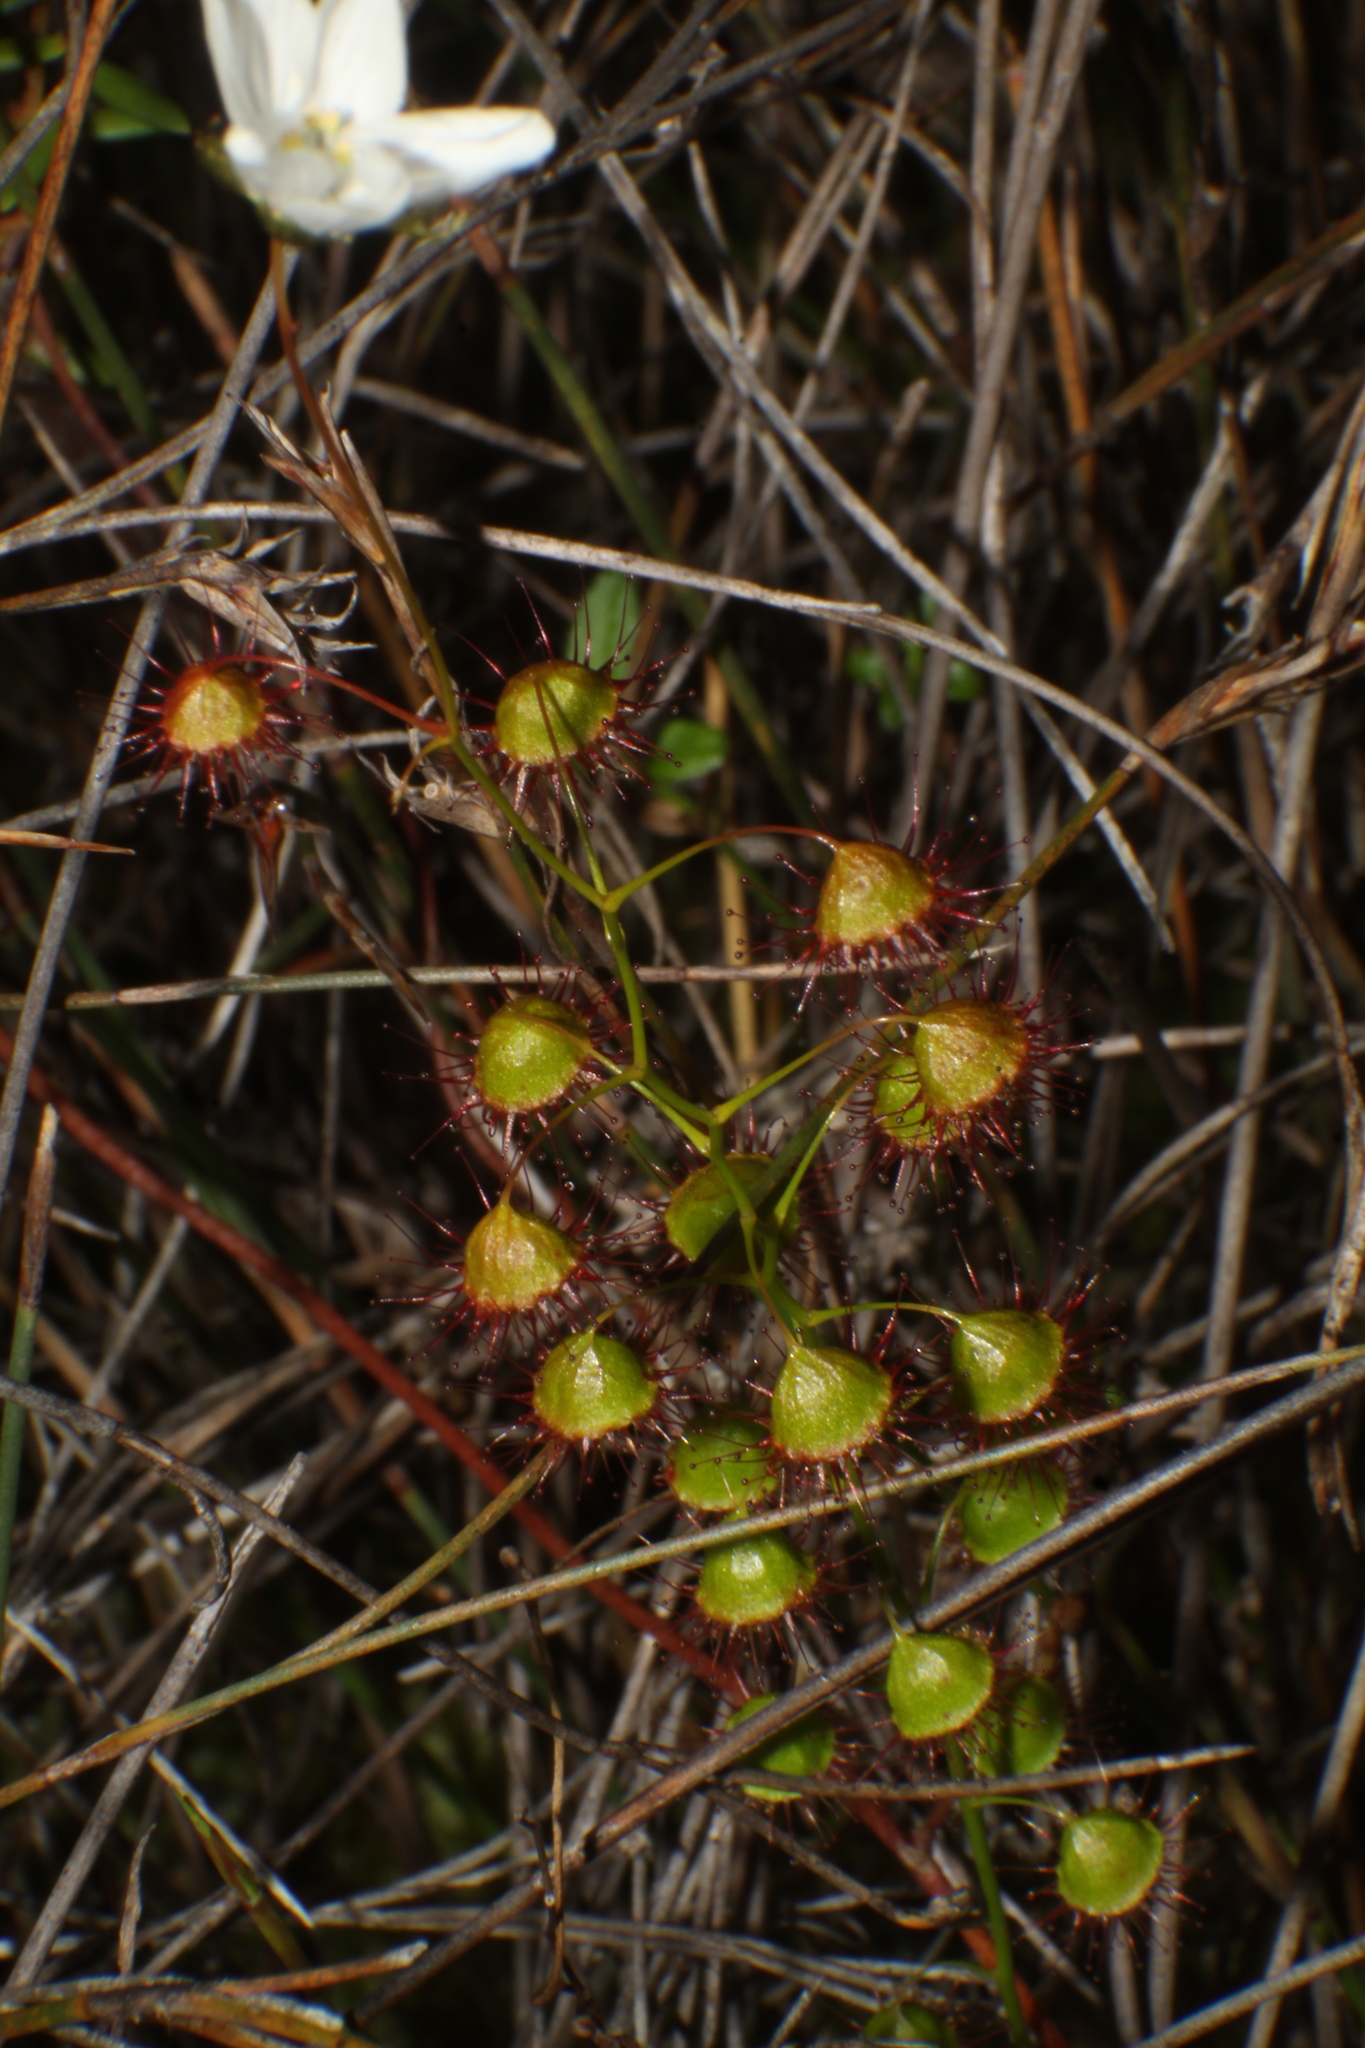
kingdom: Plantae
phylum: Tracheophyta
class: Magnoliopsida
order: Caryophyllales
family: Droseraceae
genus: Drosera
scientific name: Drosera huegelii
